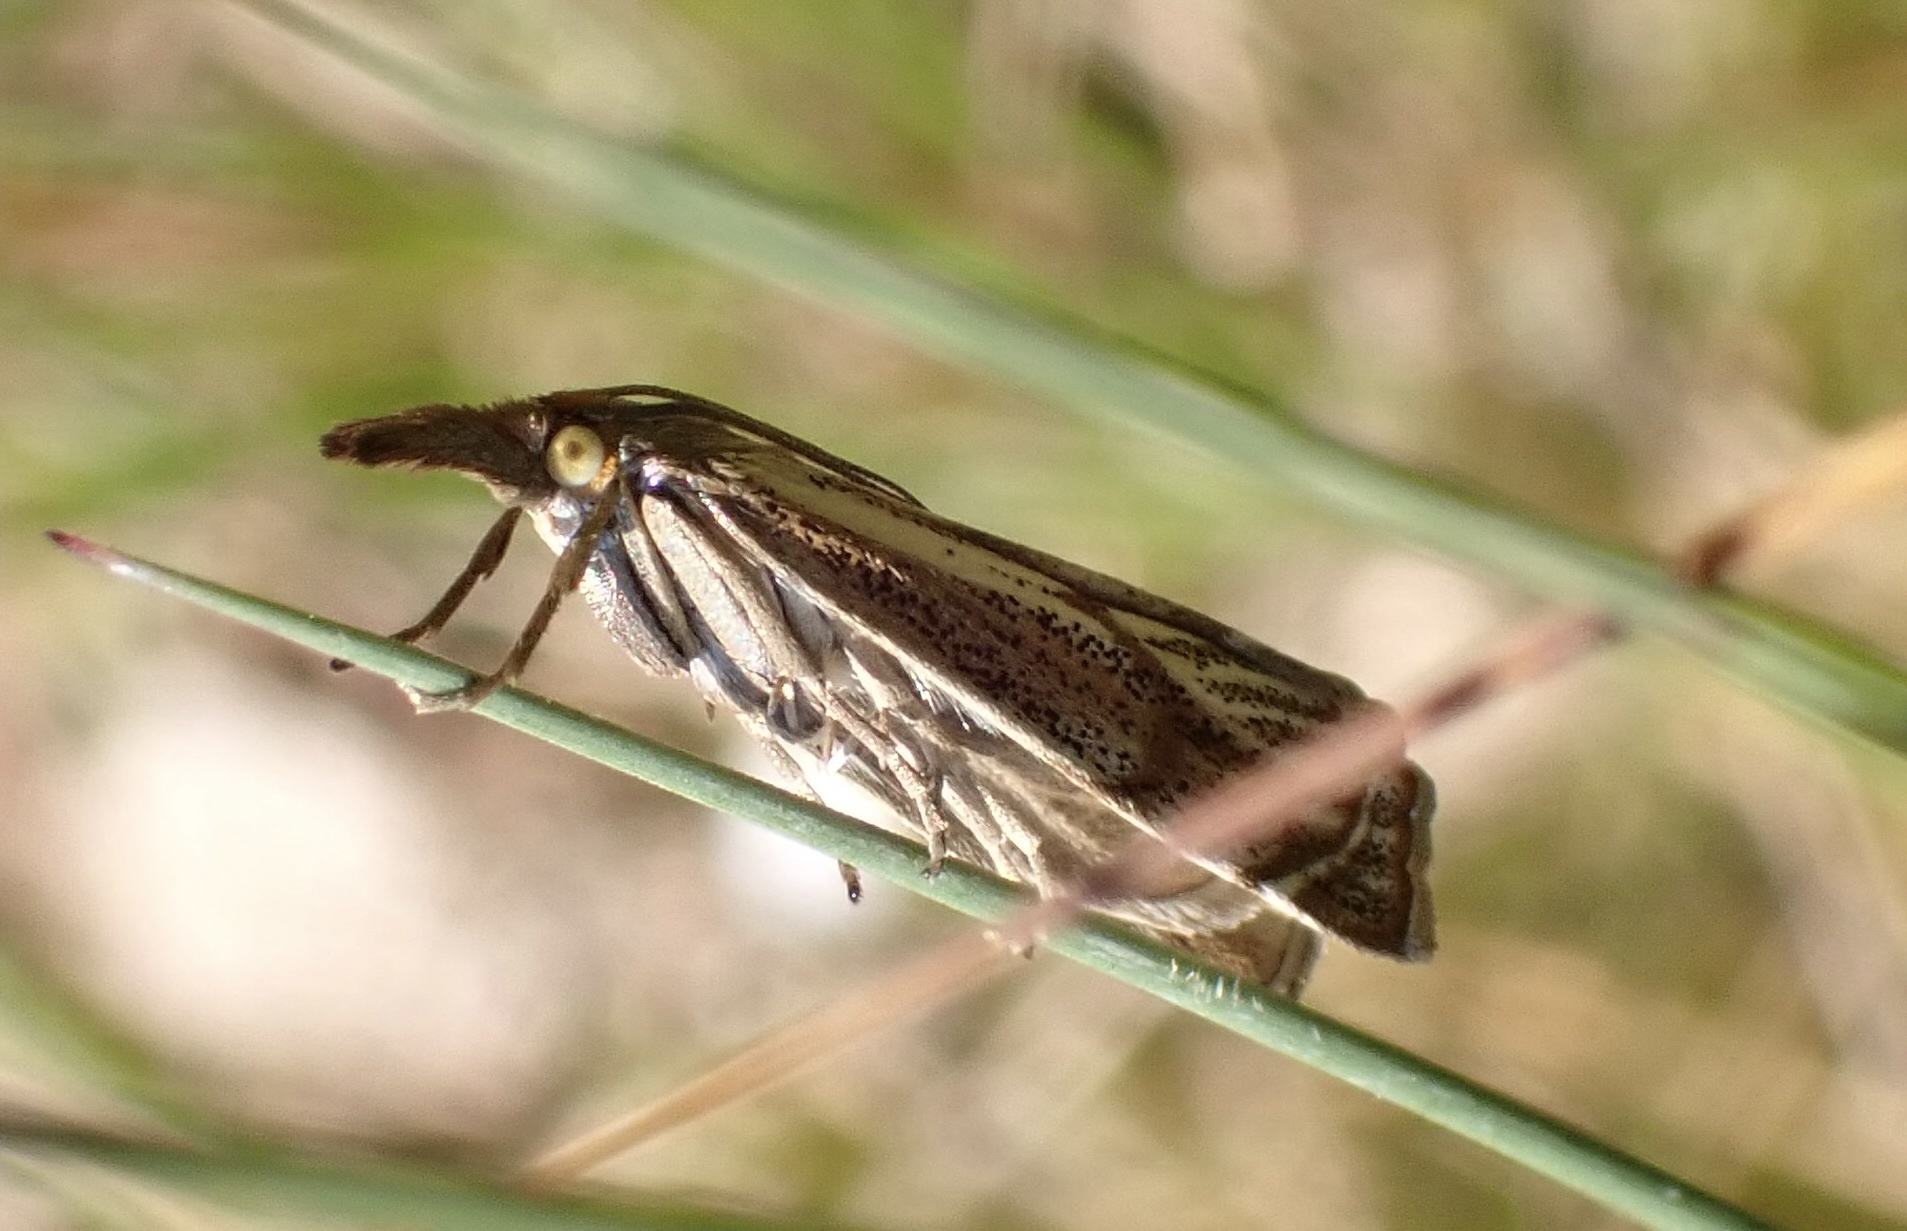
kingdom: Animalia
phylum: Arthropoda
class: Insecta
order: Lepidoptera
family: Crambidae
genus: Thisanotia
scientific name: Thisanotia chrysonuchella
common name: Powdered grass-veneer
